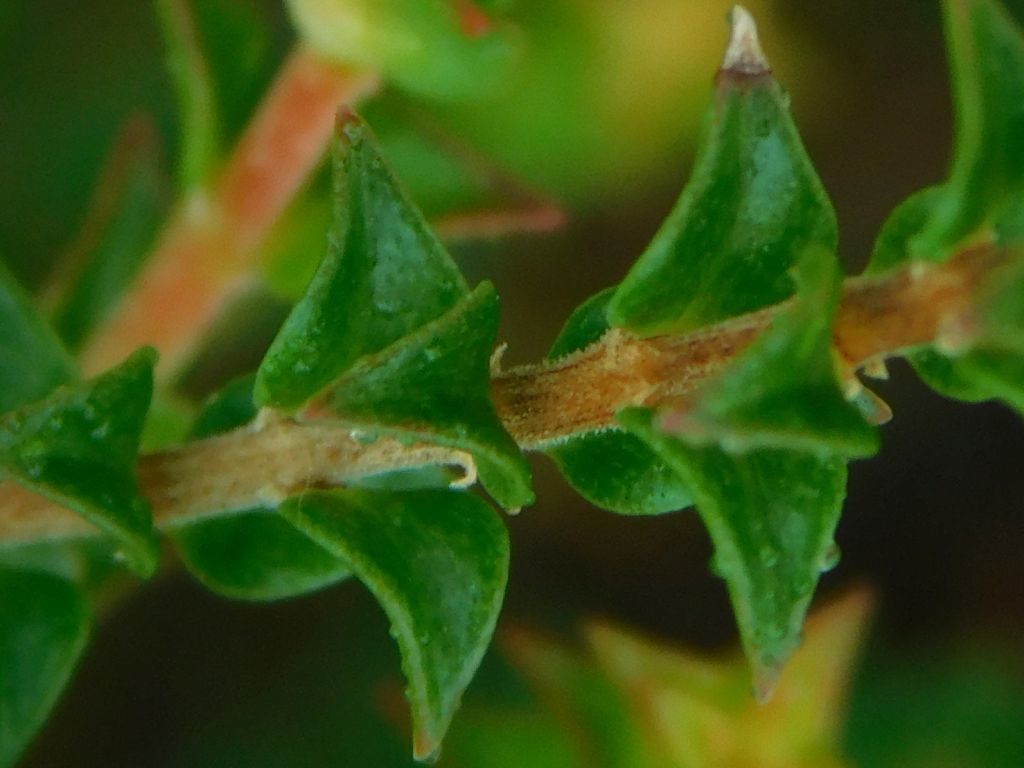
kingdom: Plantae
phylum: Tracheophyta
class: Magnoliopsida
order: Myrtales
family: Penaeaceae
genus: Penaea
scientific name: Penaea cneorum
